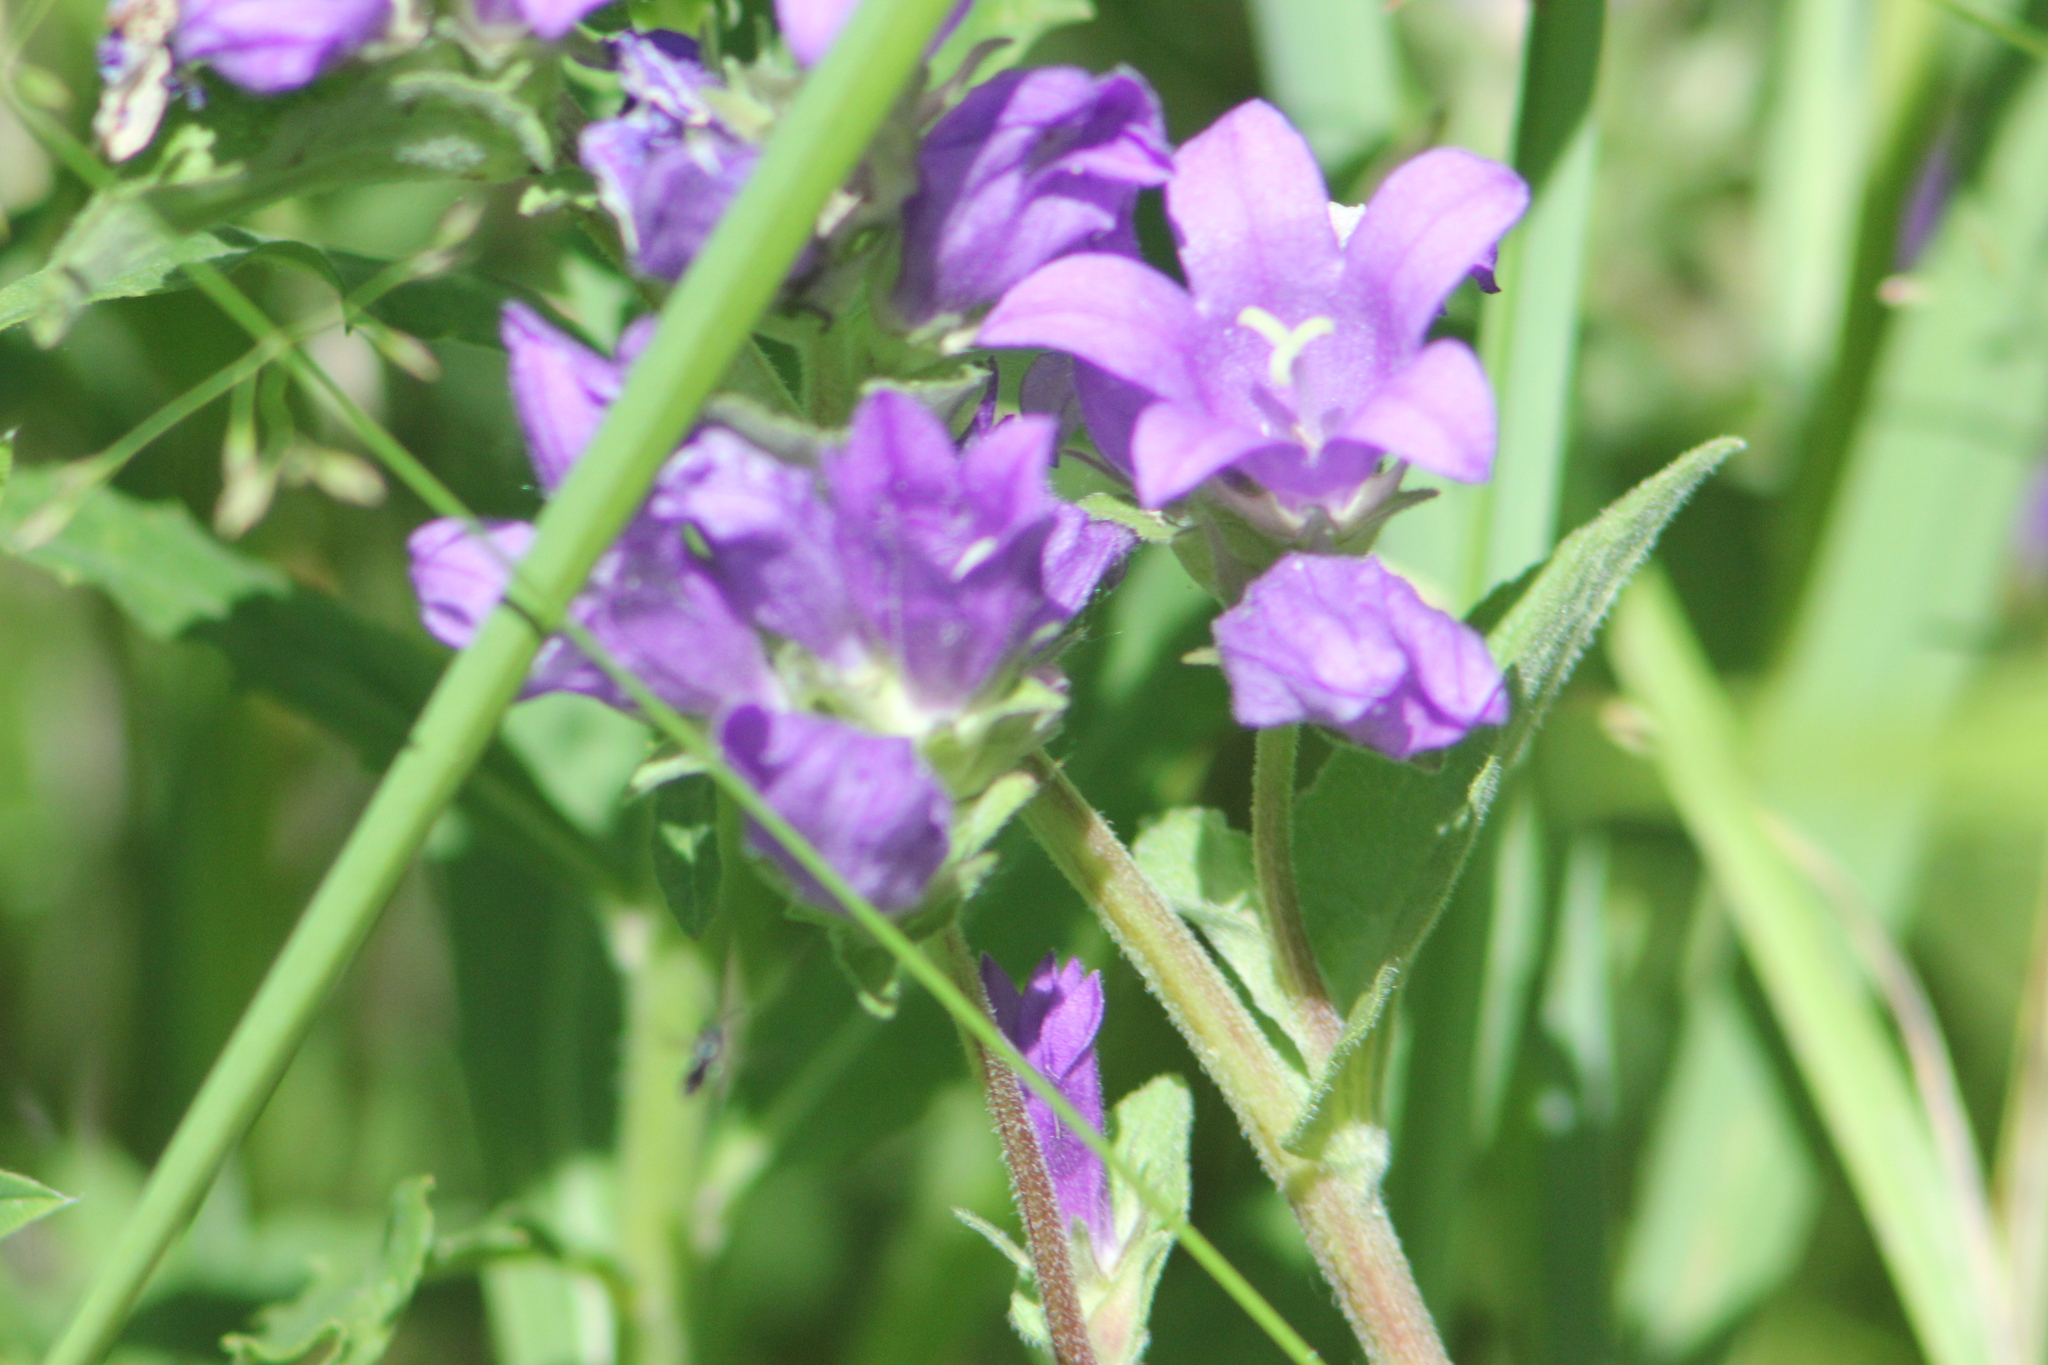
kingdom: Plantae
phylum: Tracheophyta
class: Magnoliopsida
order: Asterales
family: Campanulaceae
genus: Campanula
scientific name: Campanula glomerata
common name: Clustered bellflower
